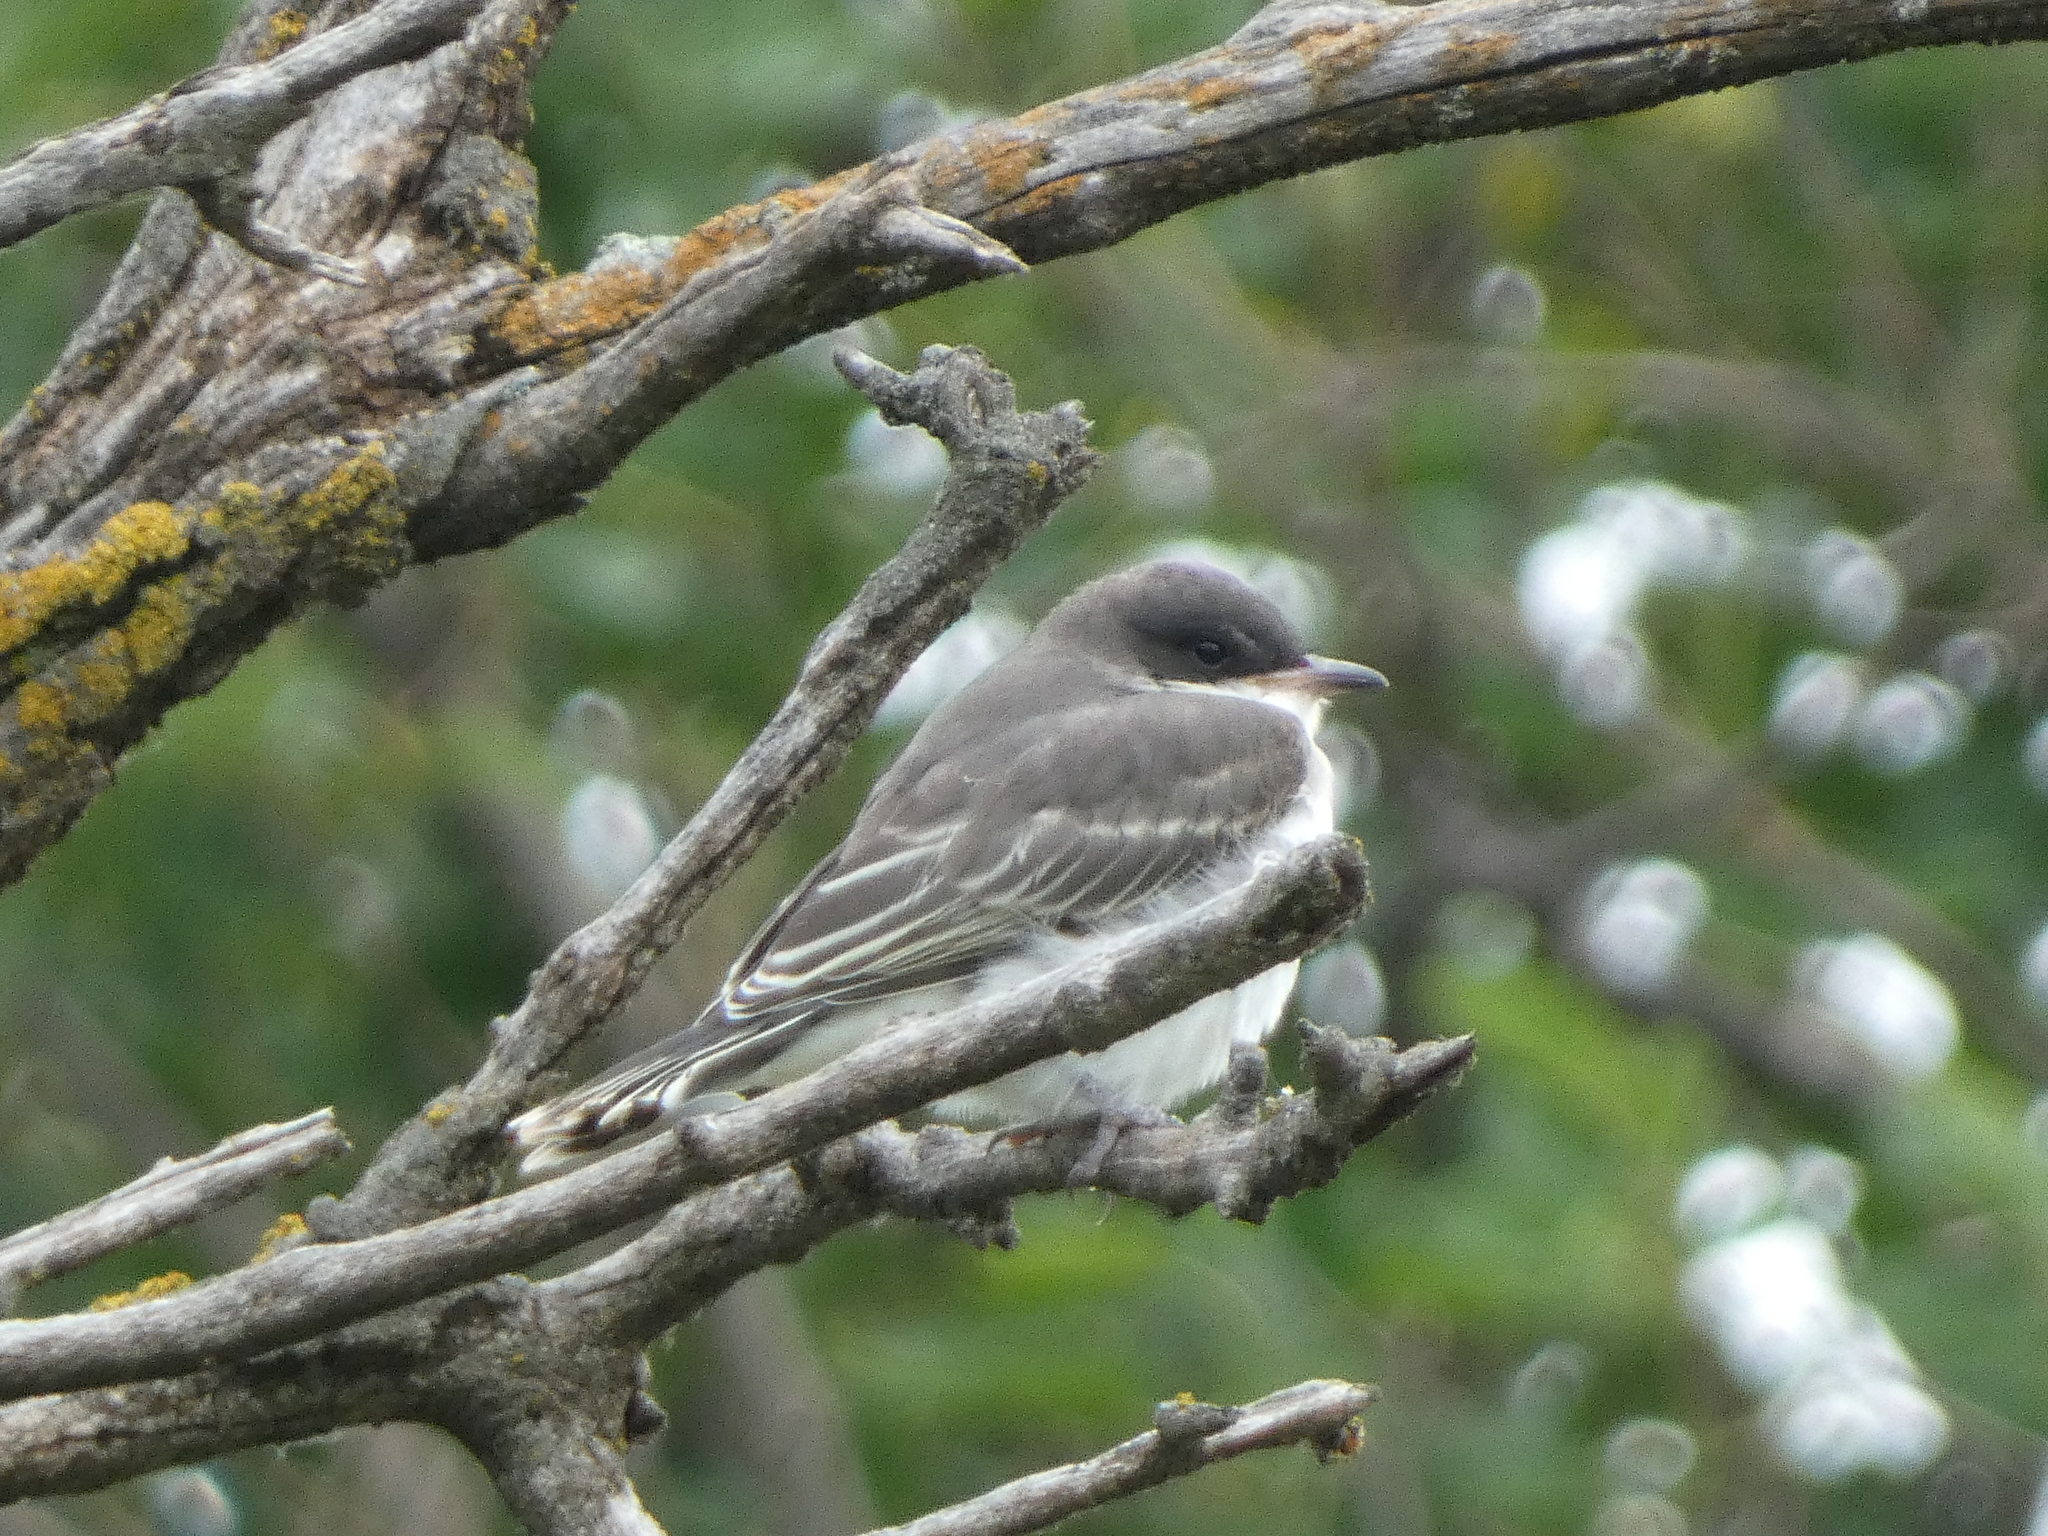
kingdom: Animalia
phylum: Chordata
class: Aves
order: Passeriformes
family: Tyrannidae
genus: Tyrannus
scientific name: Tyrannus tyrannus
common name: Eastern kingbird
